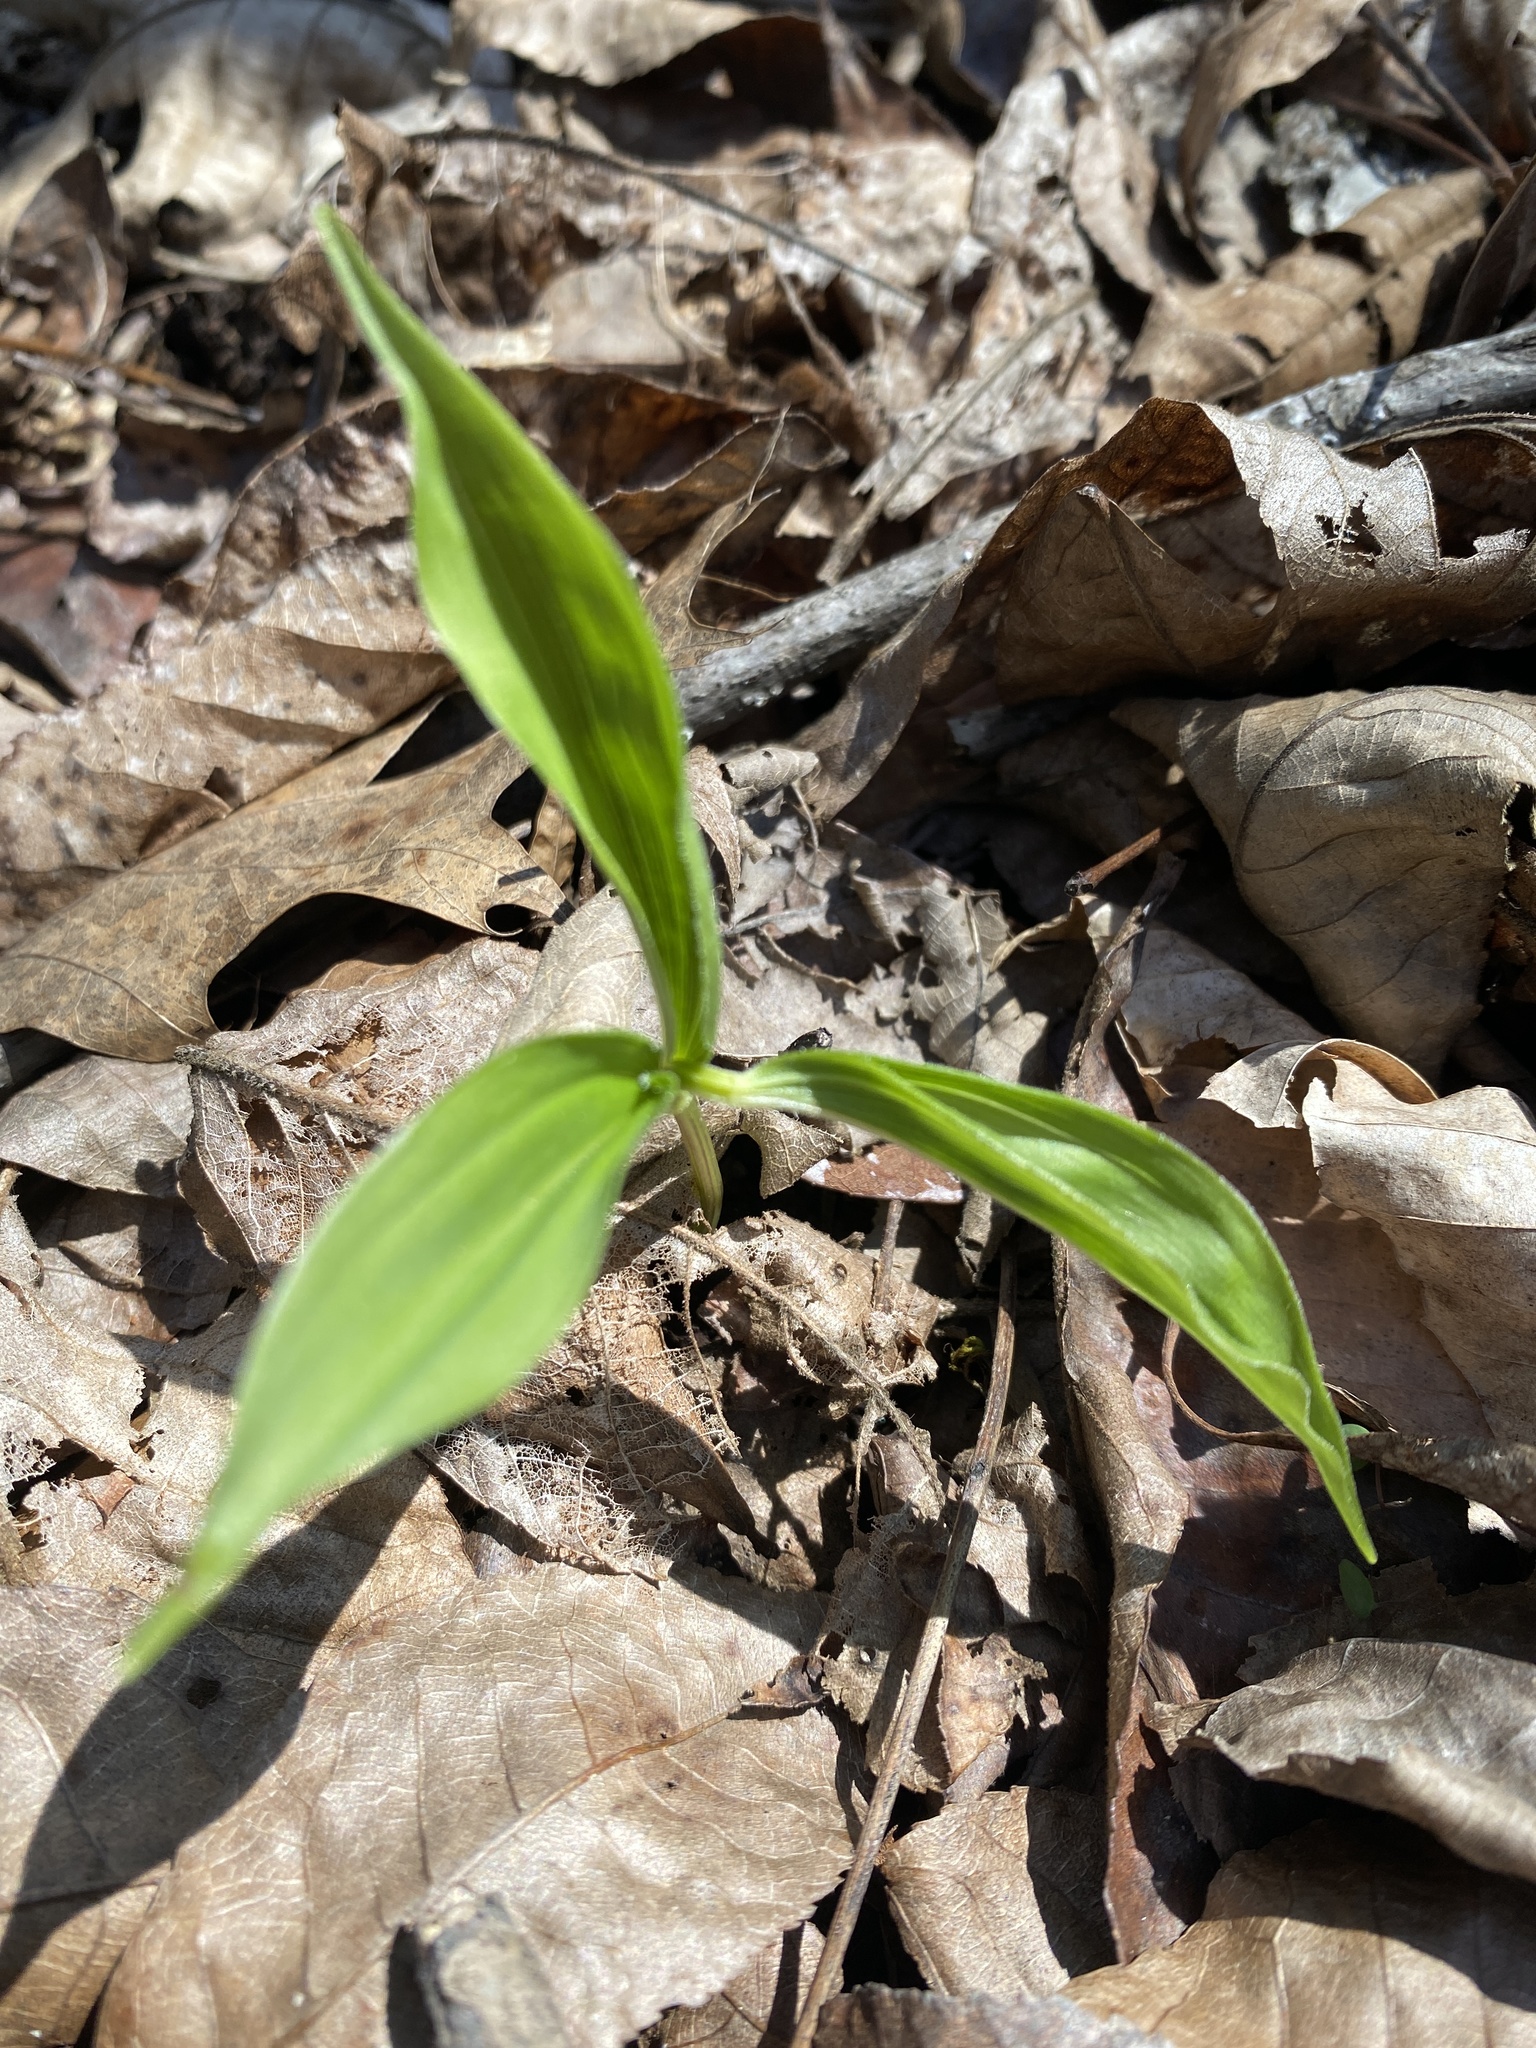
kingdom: Plantae
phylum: Tracheophyta
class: Liliopsida
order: Asparagales
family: Asparagaceae
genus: Maianthemum
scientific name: Maianthemum racemosum
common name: False spikenard
